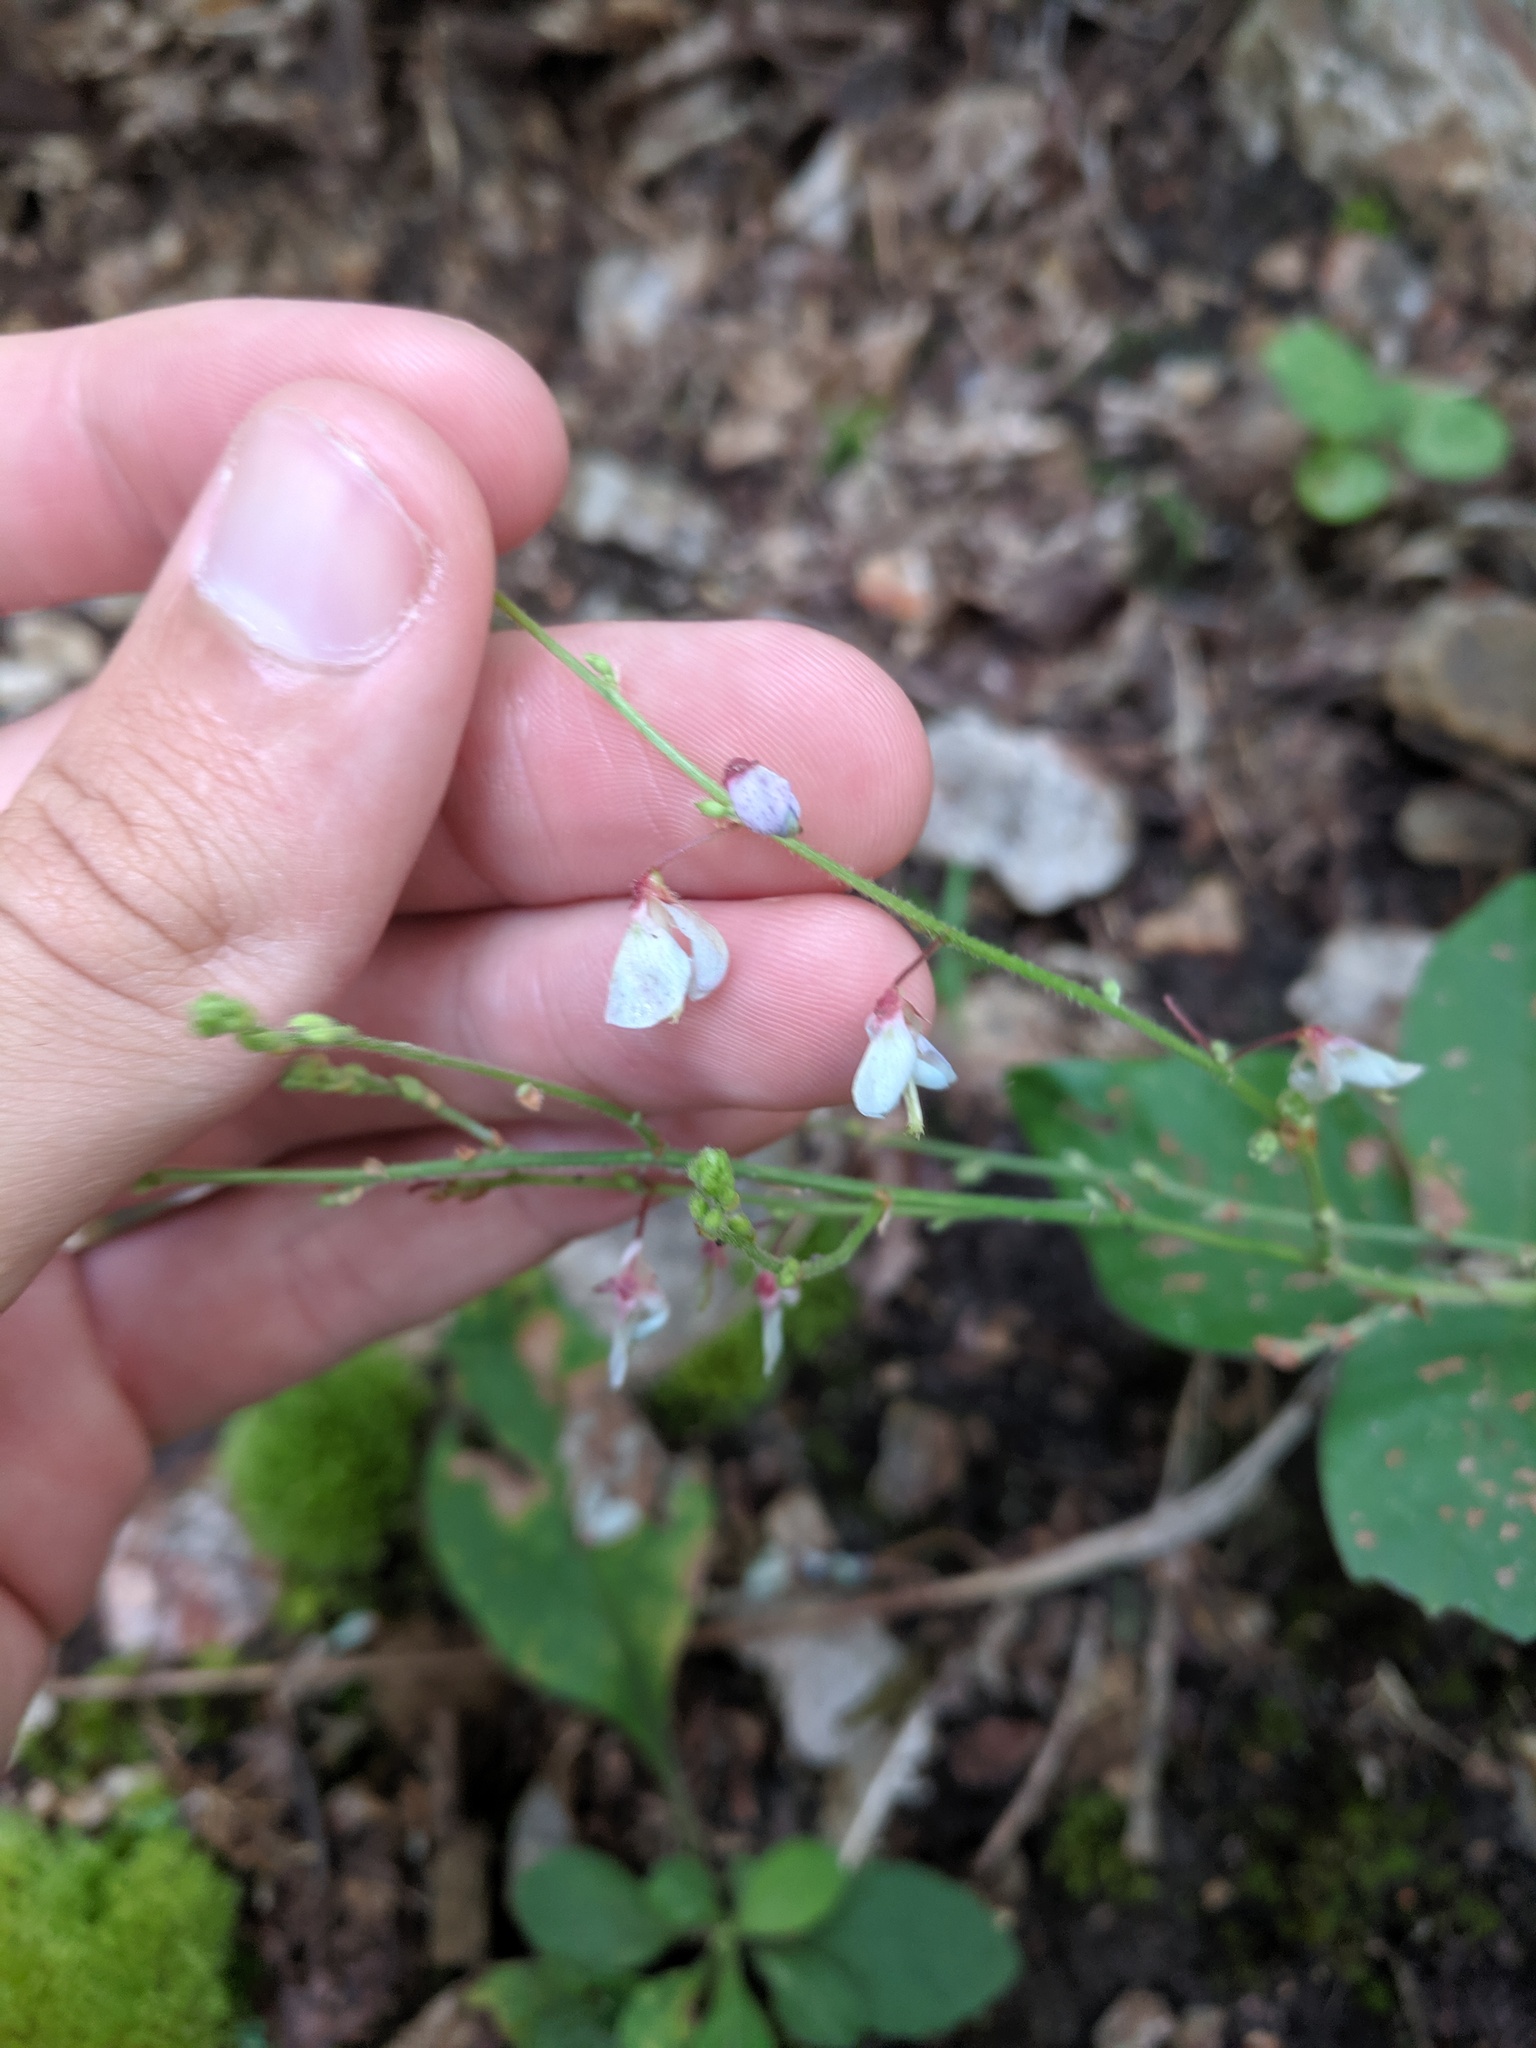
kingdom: Plantae
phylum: Tracheophyta
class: Magnoliopsida
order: Fabales
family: Fabaceae
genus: Desmodium
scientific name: Desmodium nuttallii
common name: Nuttall's tick trefoil
